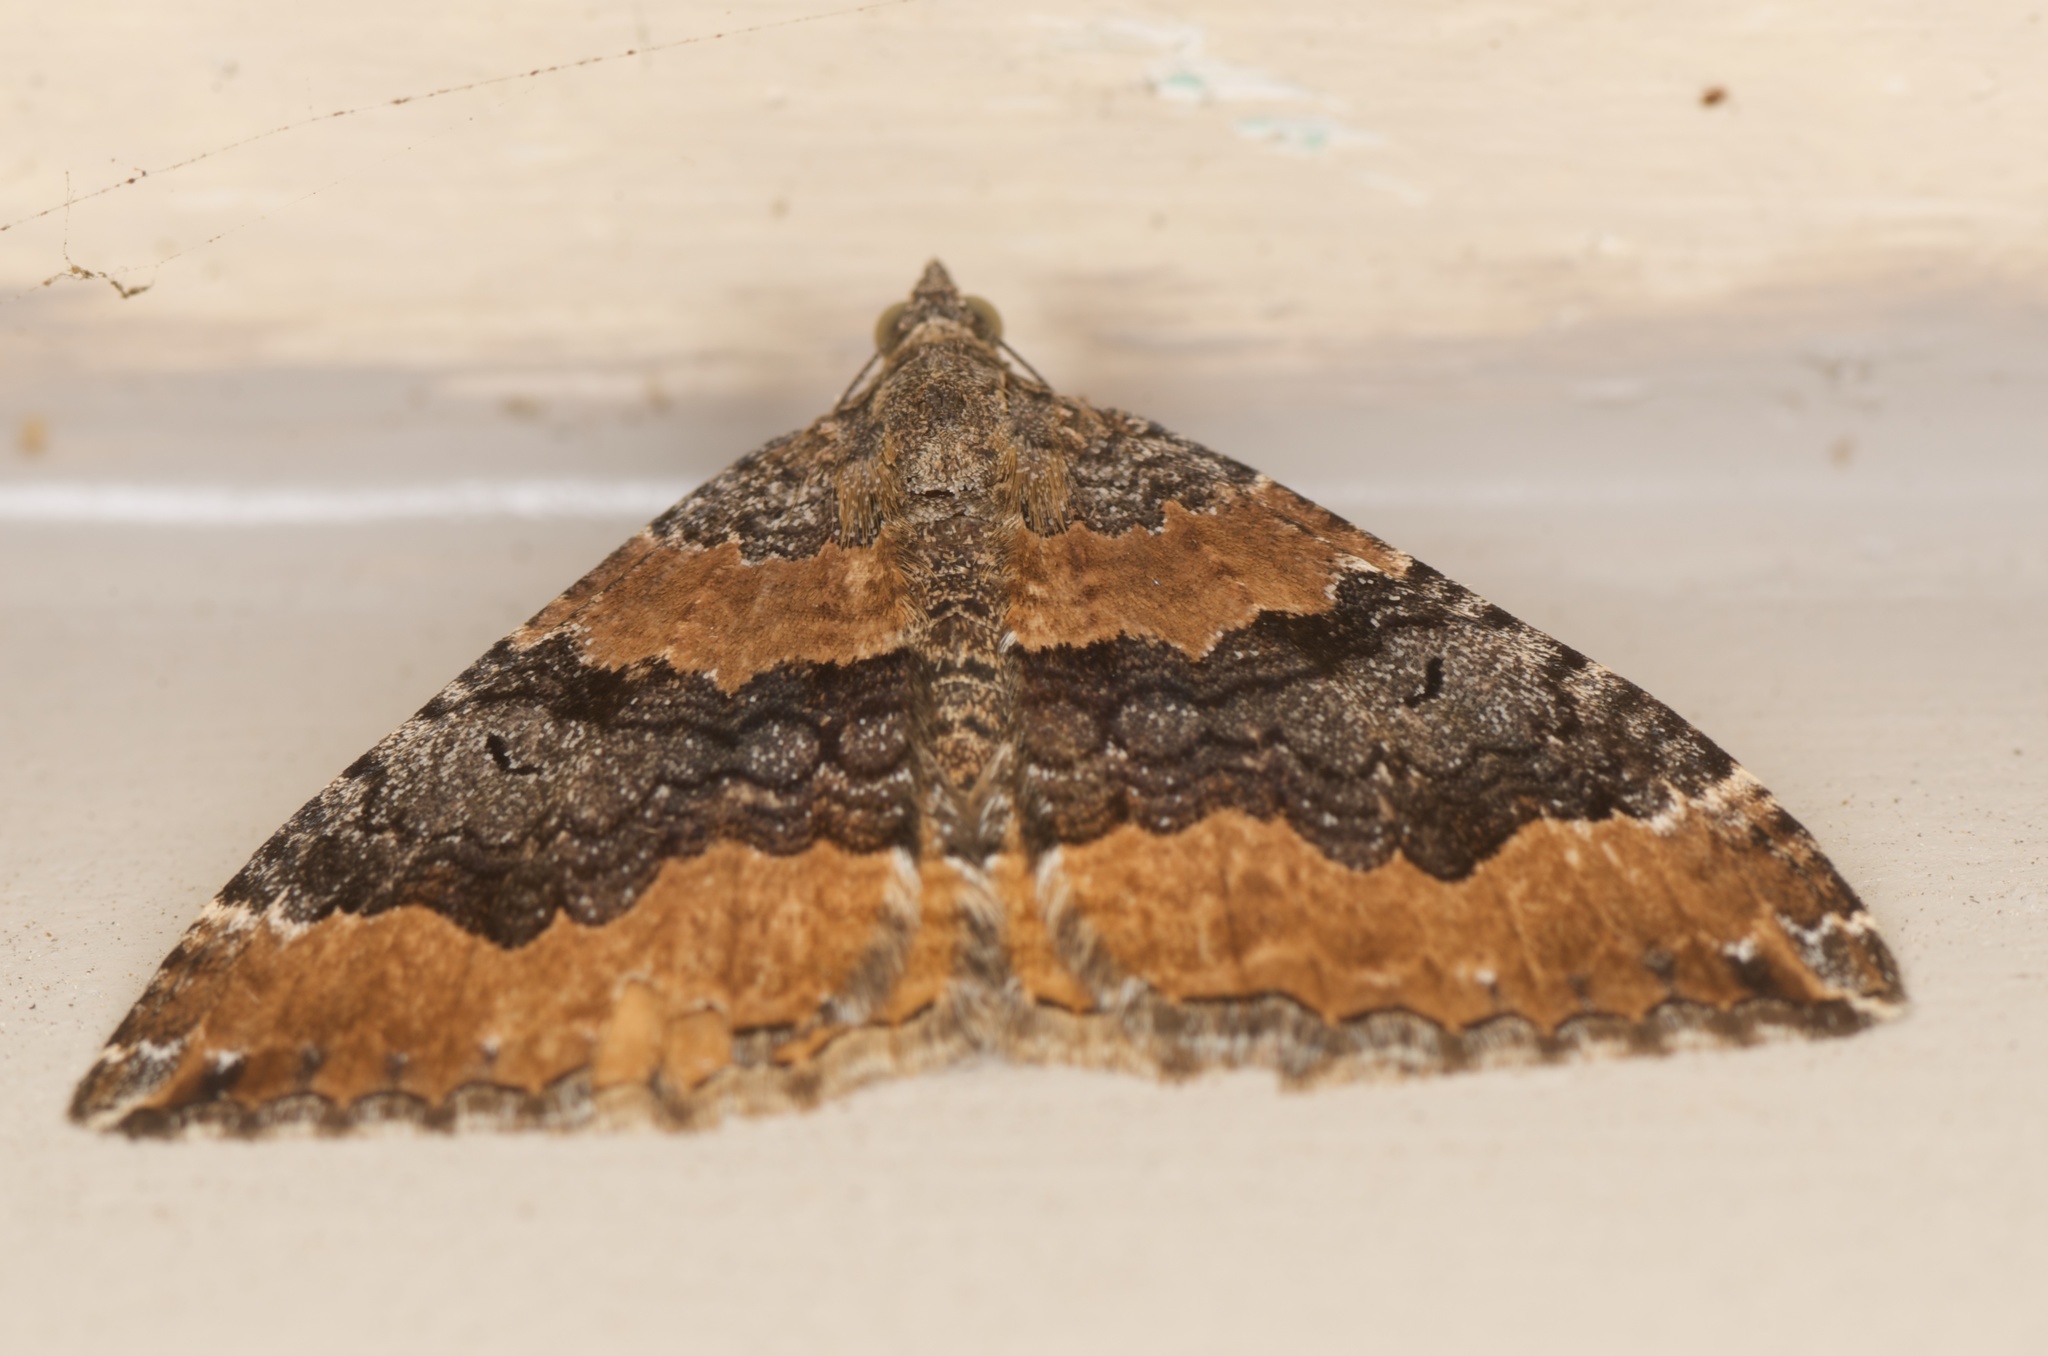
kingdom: Animalia
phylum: Arthropoda
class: Insecta
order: Lepidoptera
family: Geometridae
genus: Hydriomena
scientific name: Hydriomena deltoidata
